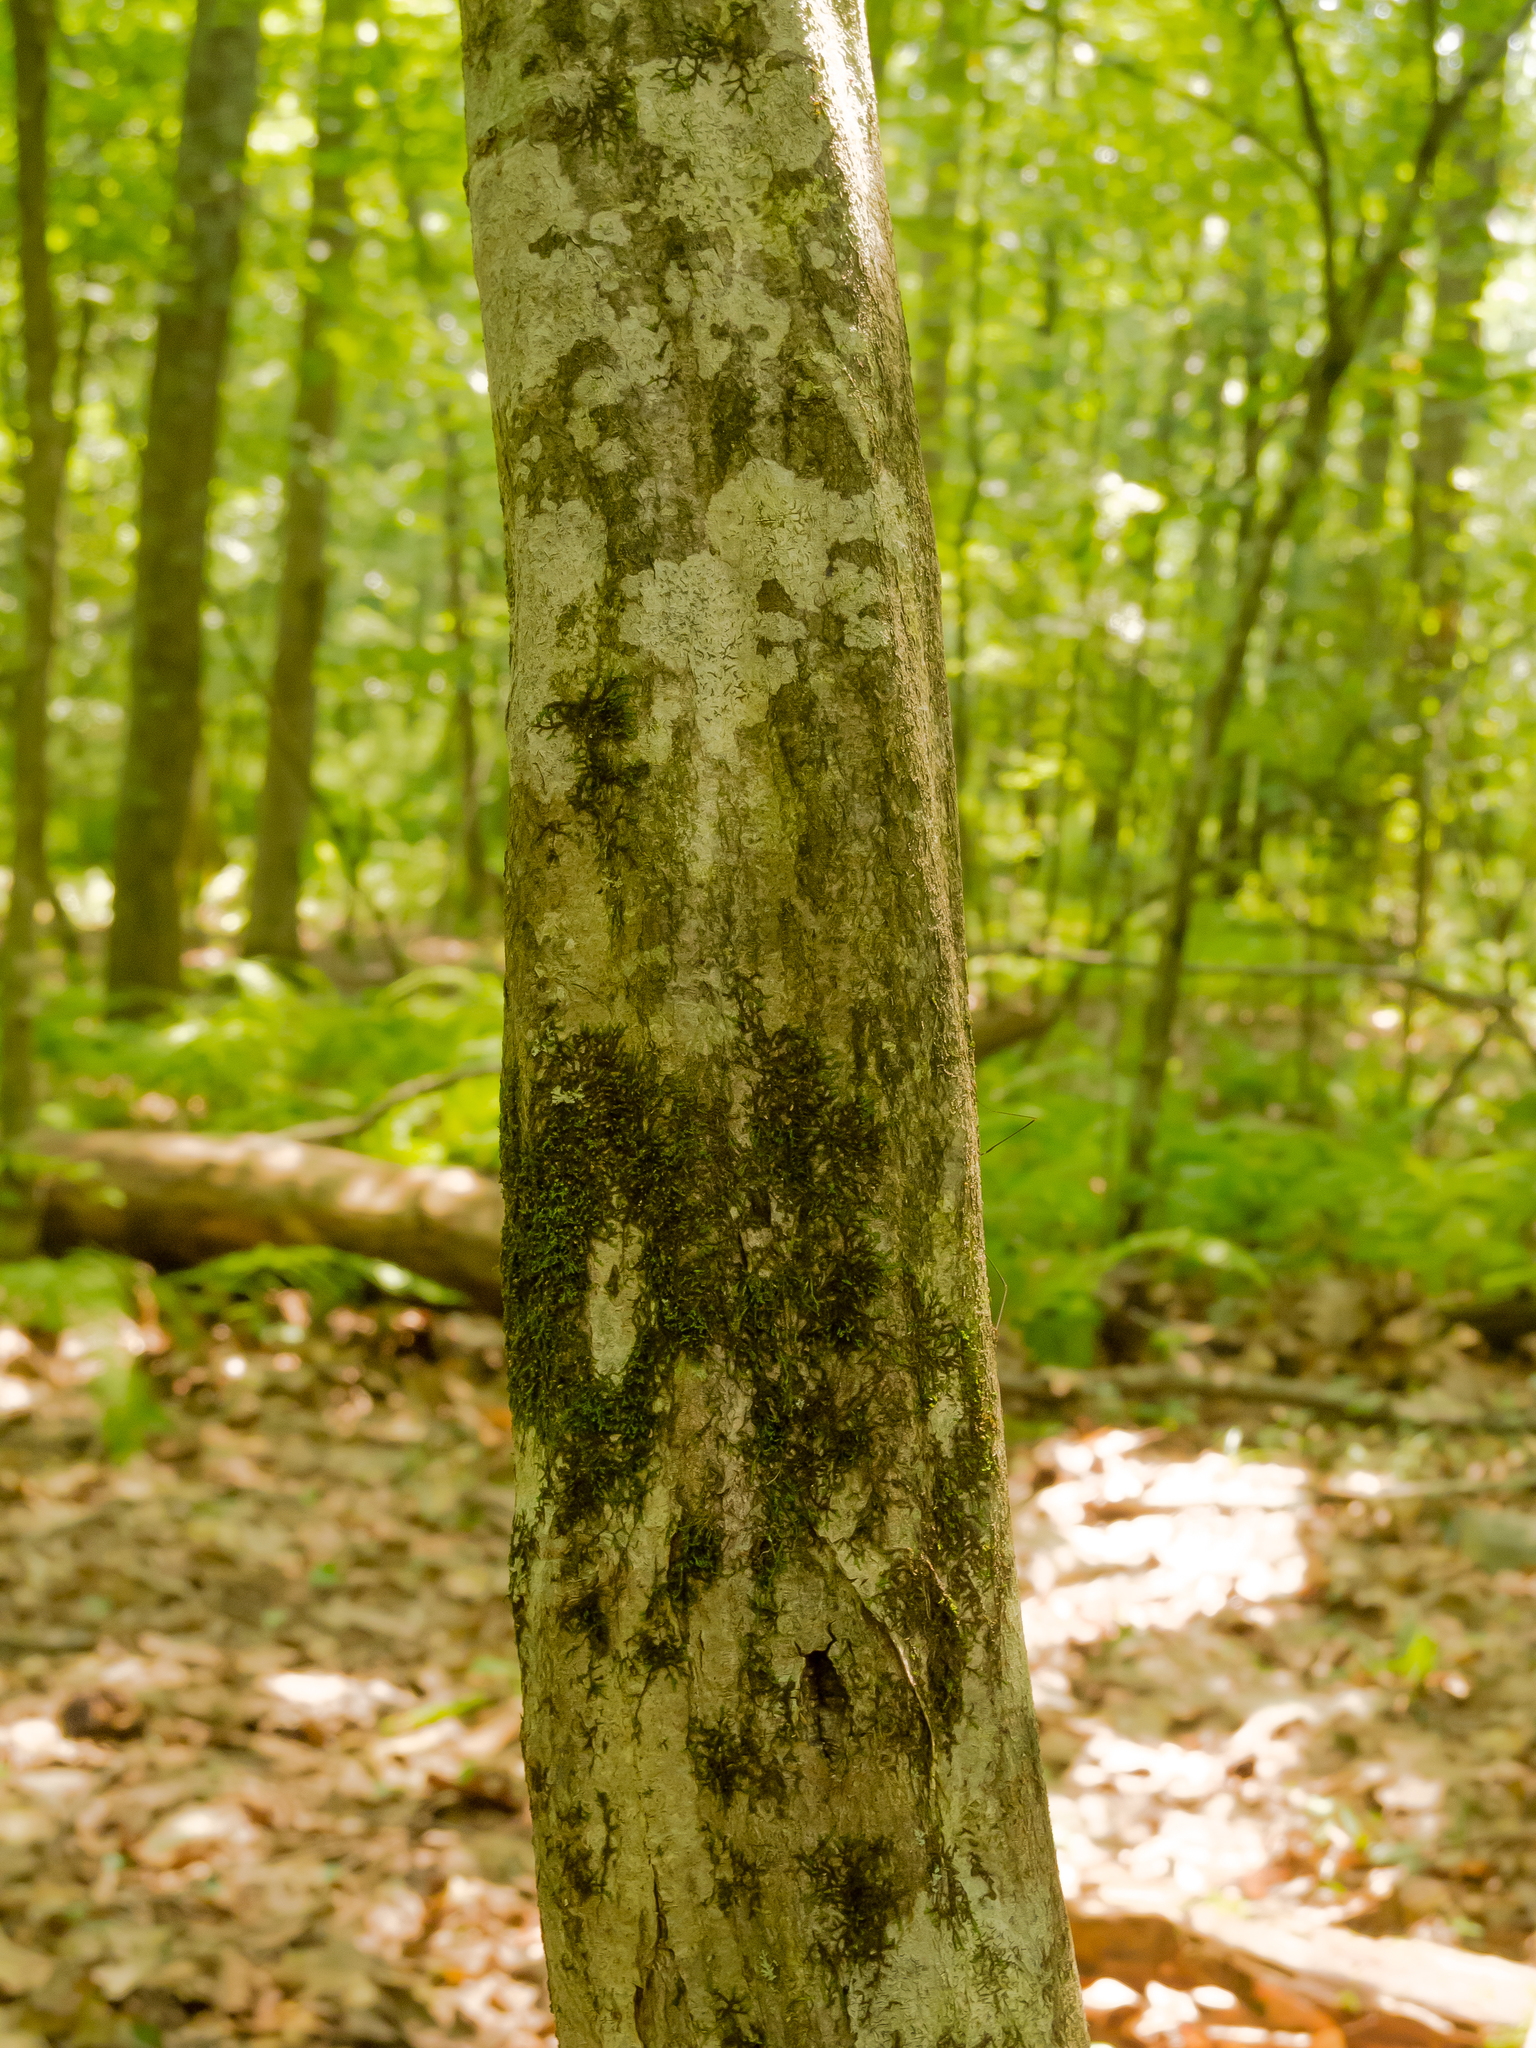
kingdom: Plantae
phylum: Tracheophyta
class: Magnoliopsida
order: Fagales
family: Betulaceae
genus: Carpinus
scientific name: Carpinus caroliniana
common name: American hornbeam
